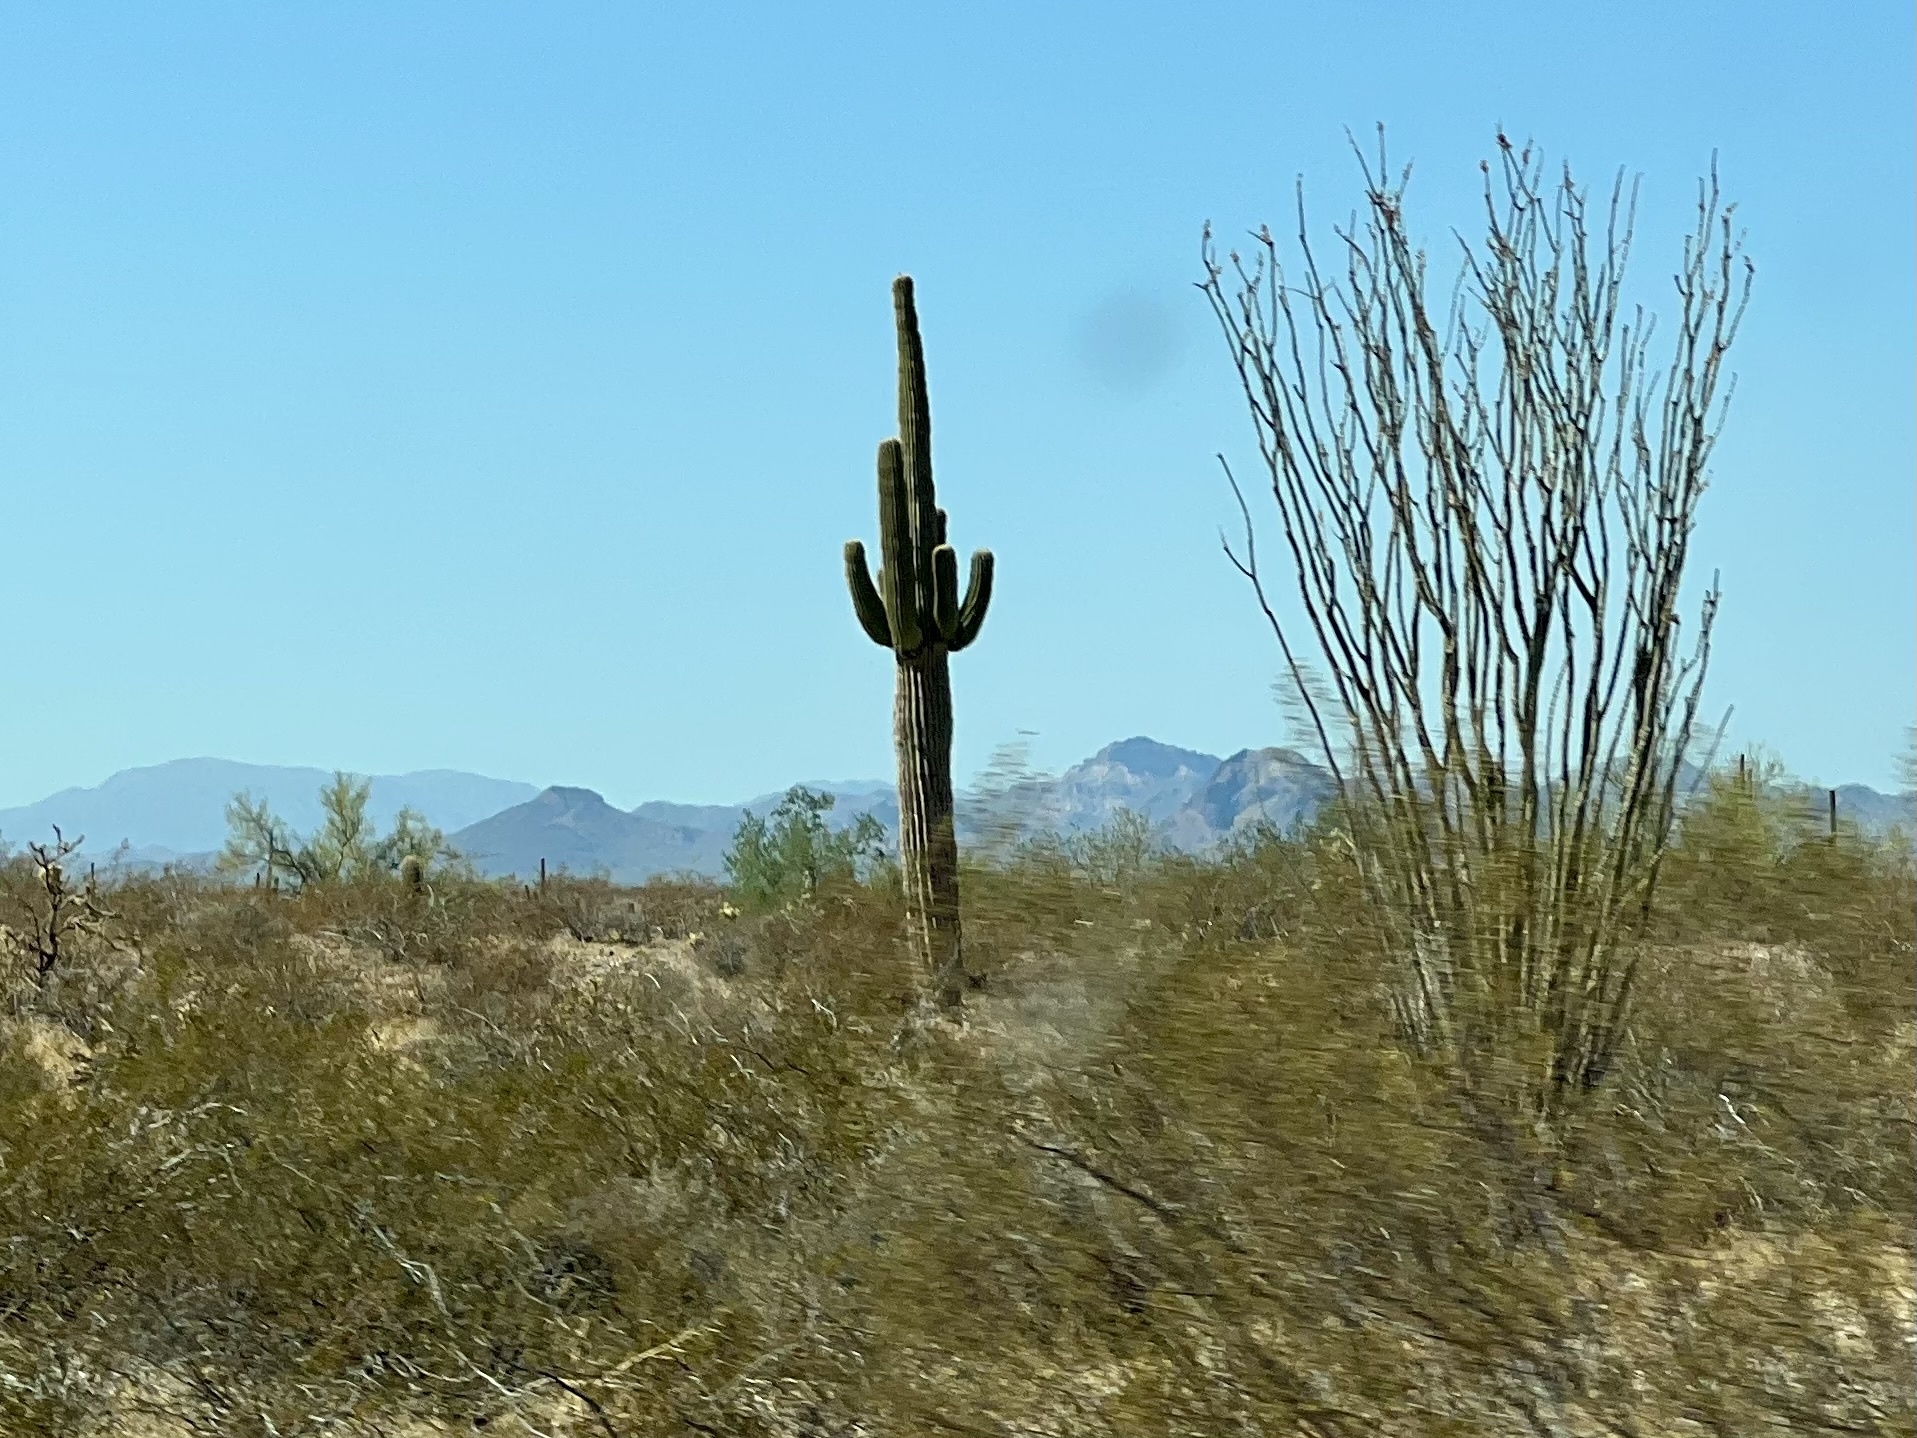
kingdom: Plantae
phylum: Tracheophyta
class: Magnoliopsida
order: Caryophyllales
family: Cactaceae
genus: Carnegiea
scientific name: Carnegiea gigantea
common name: Saguaro
